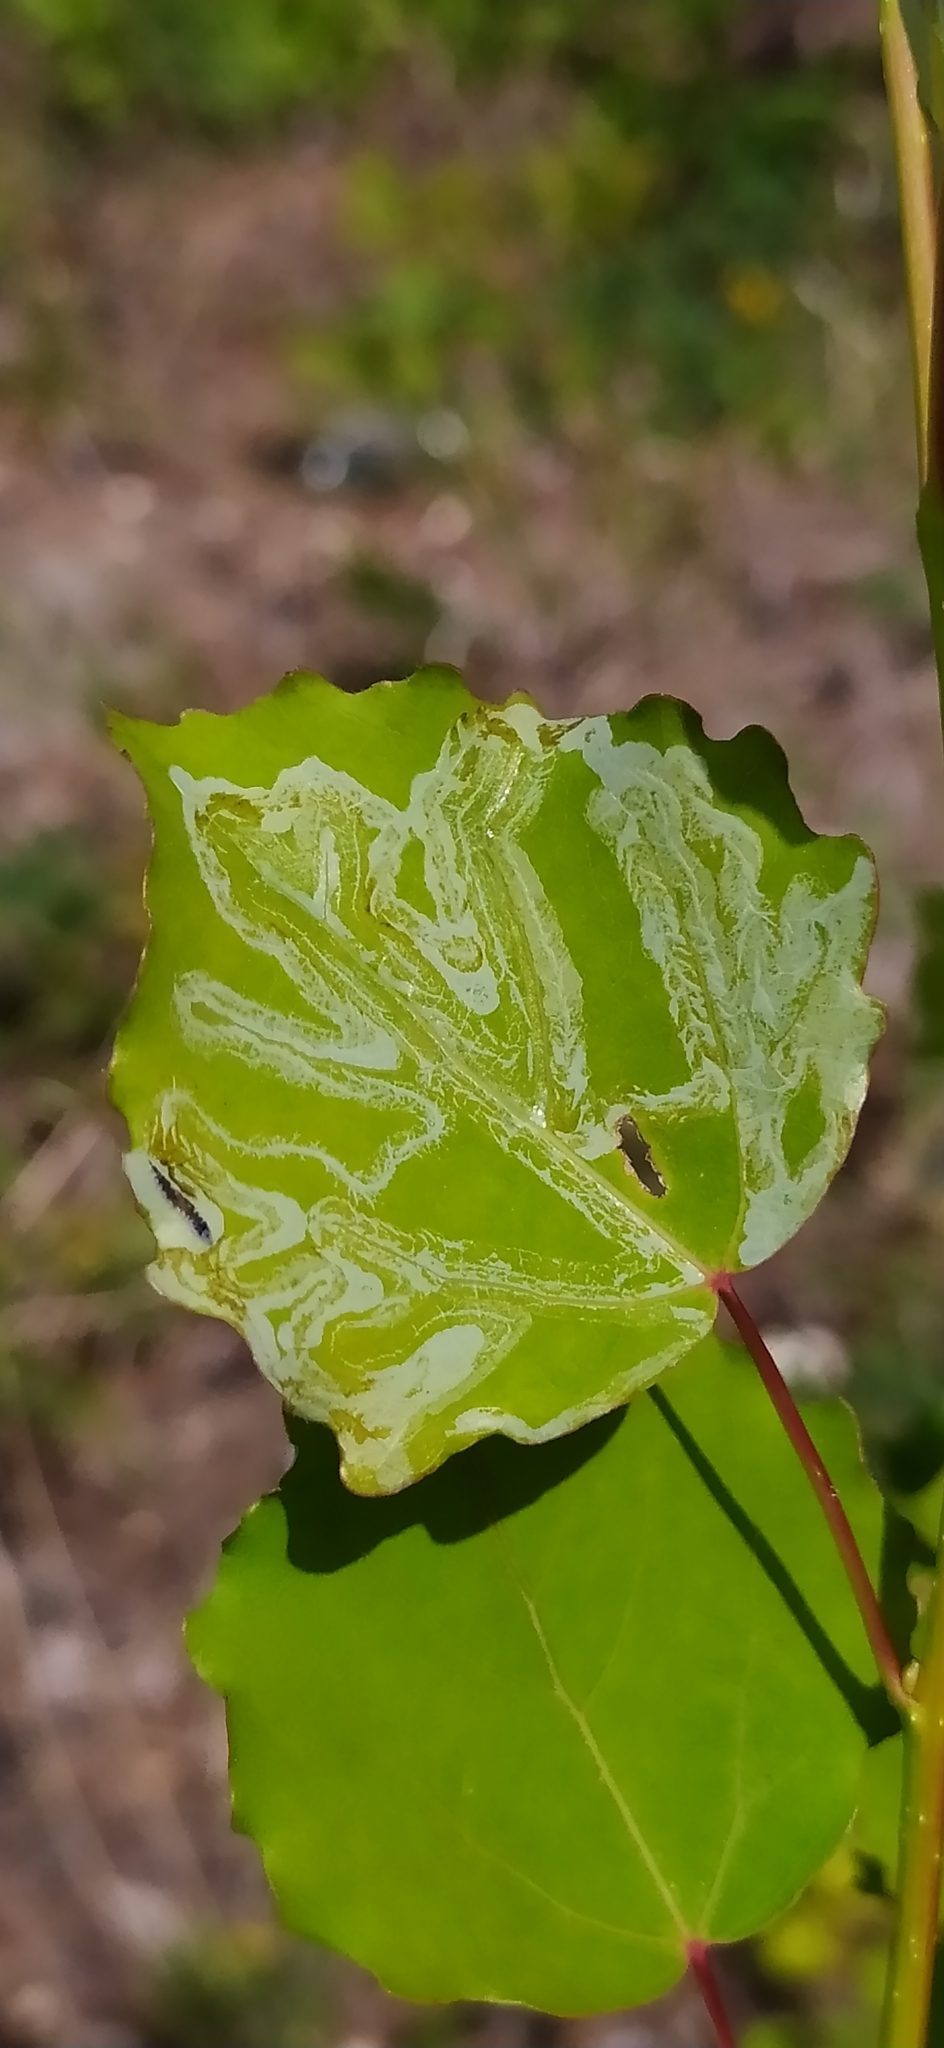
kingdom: Animalia
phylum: Arthropoda
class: Insecta
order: Lepidoptera
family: Gracillariidae
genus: Phyllocnistis
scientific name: Phyllocnistis labyrinthella
